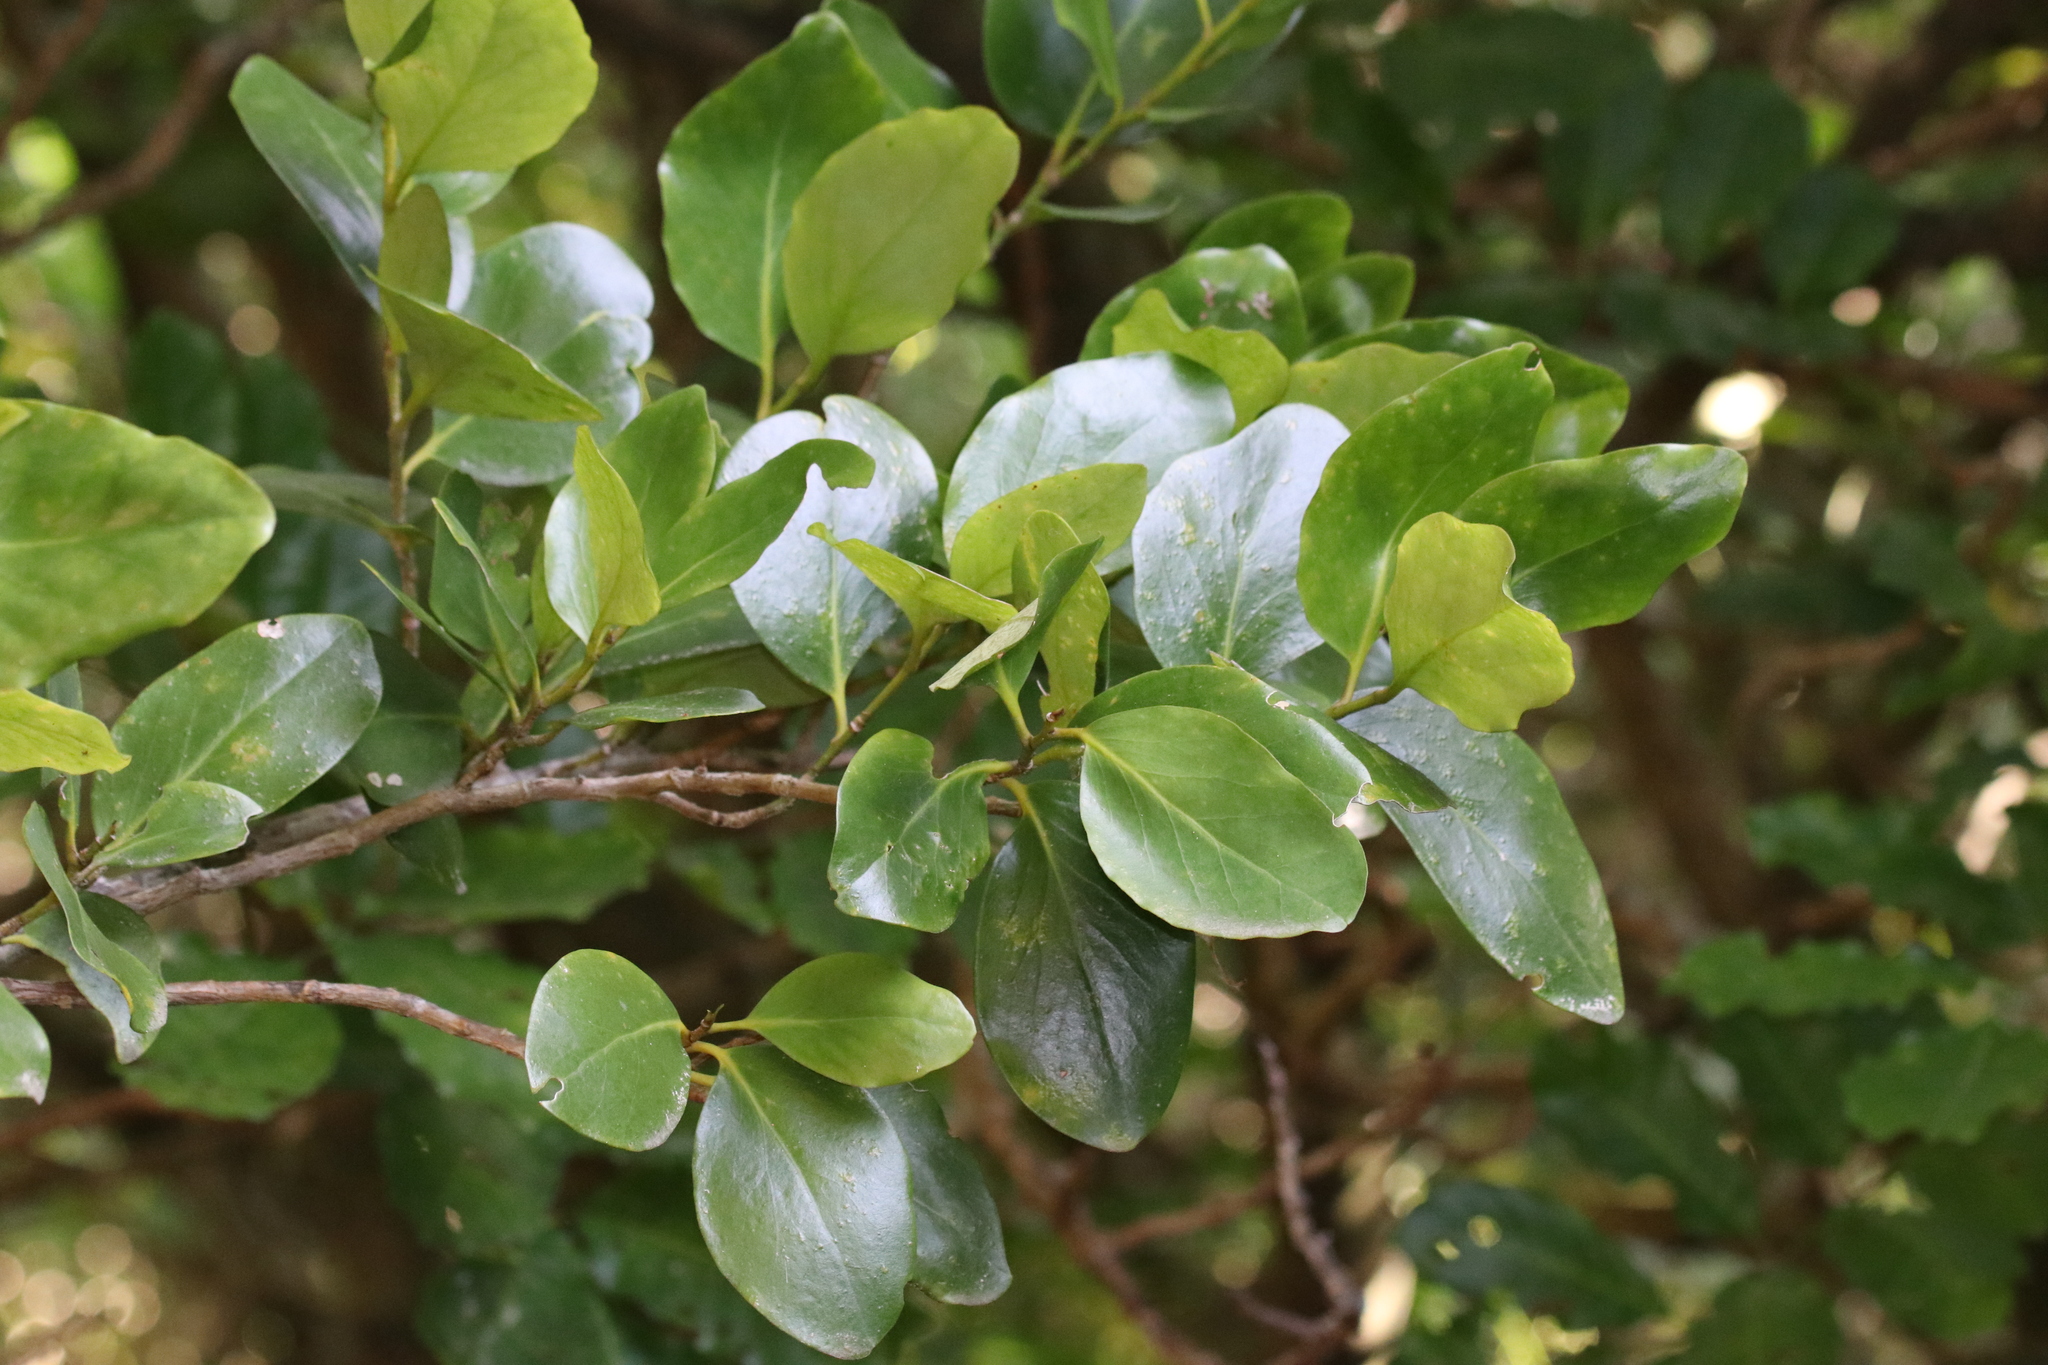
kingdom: Plantae
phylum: Tracheophyta
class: Magnoliopsida
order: Apiales
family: Griseliniaceae
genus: Griselinia
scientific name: Griselinia lucida
